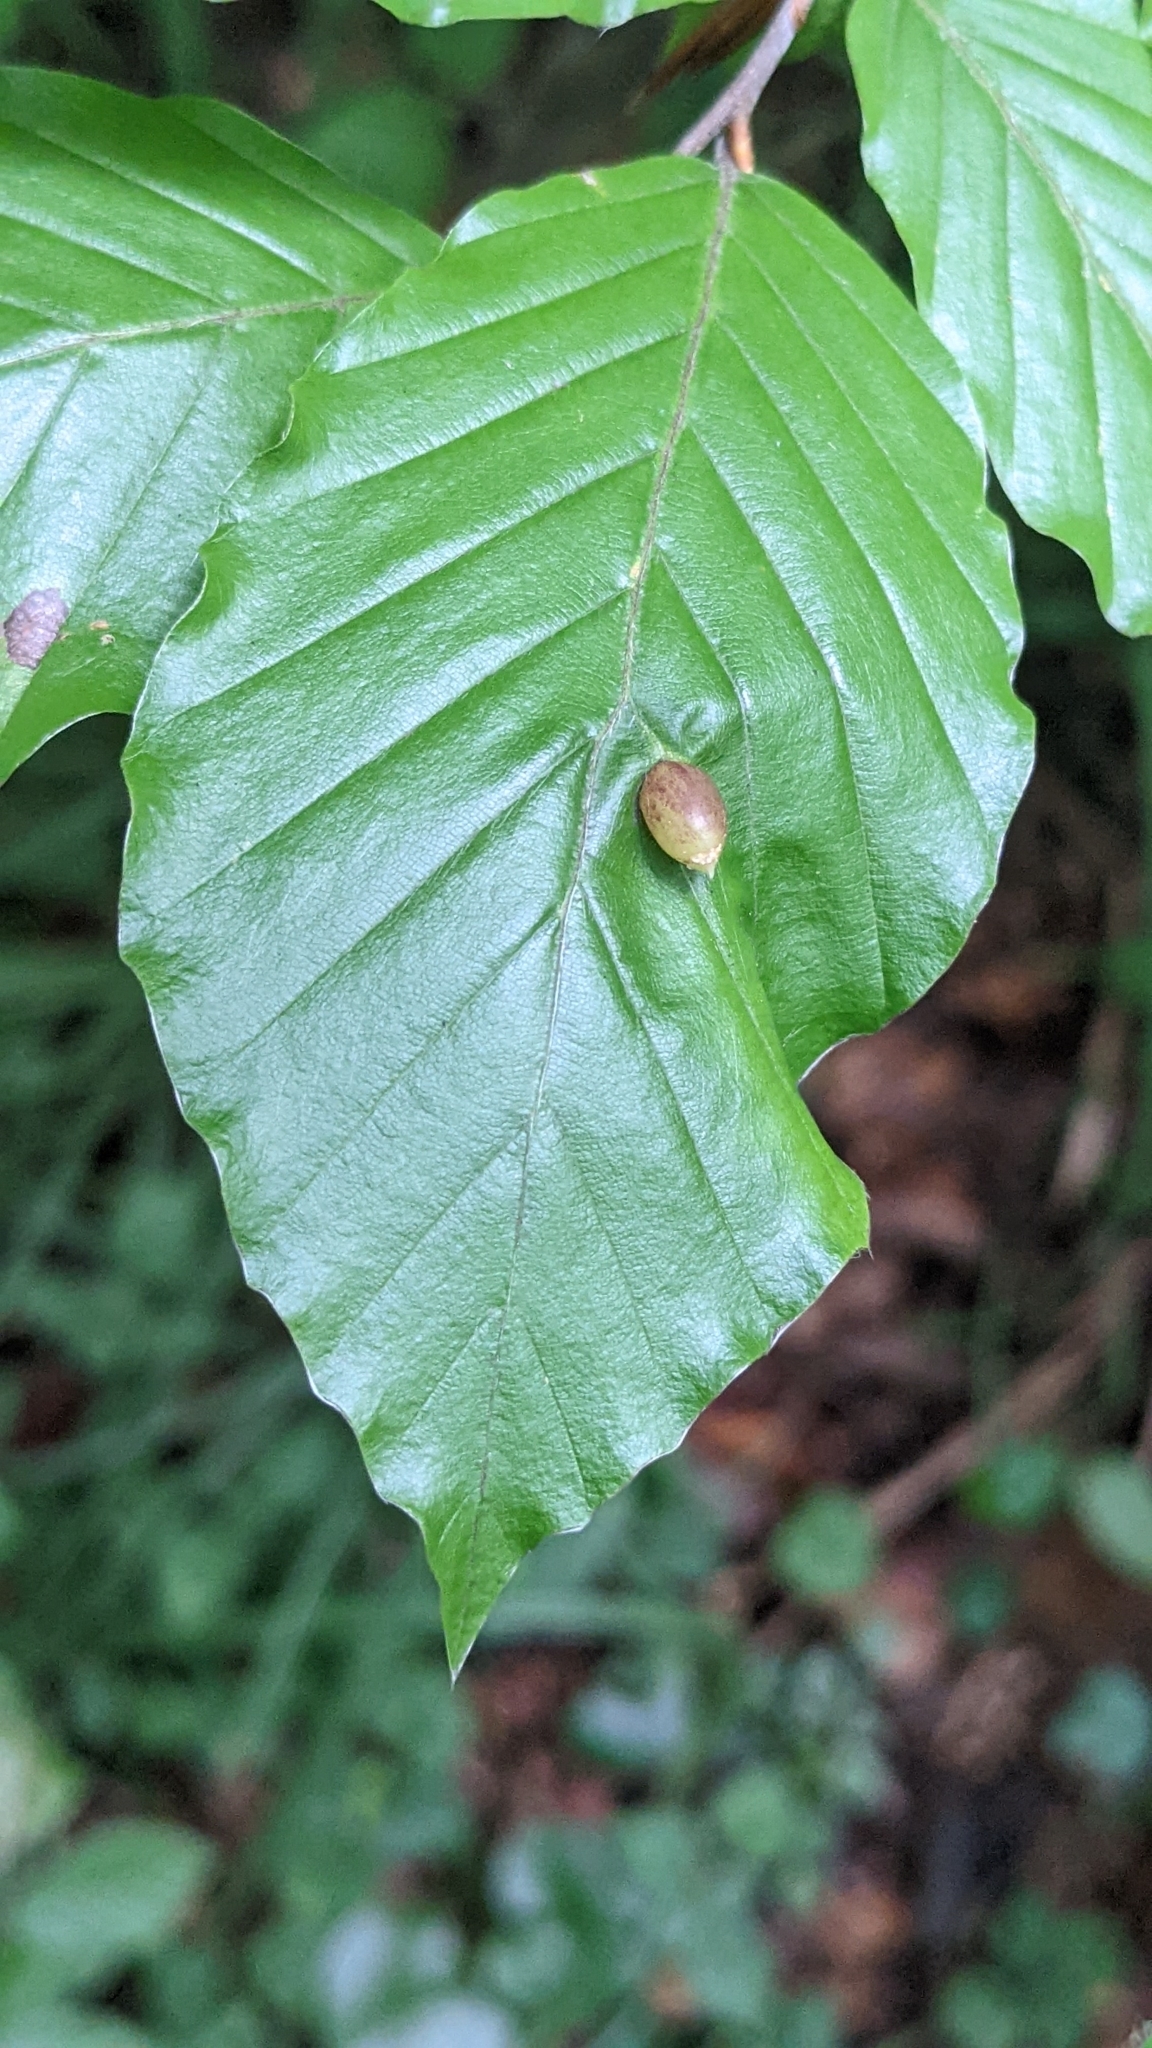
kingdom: Animalia
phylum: Arthropoda
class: Insecta
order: Diptera
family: Cecidomyiidae
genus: Mikiola
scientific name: Mikiola fagi
